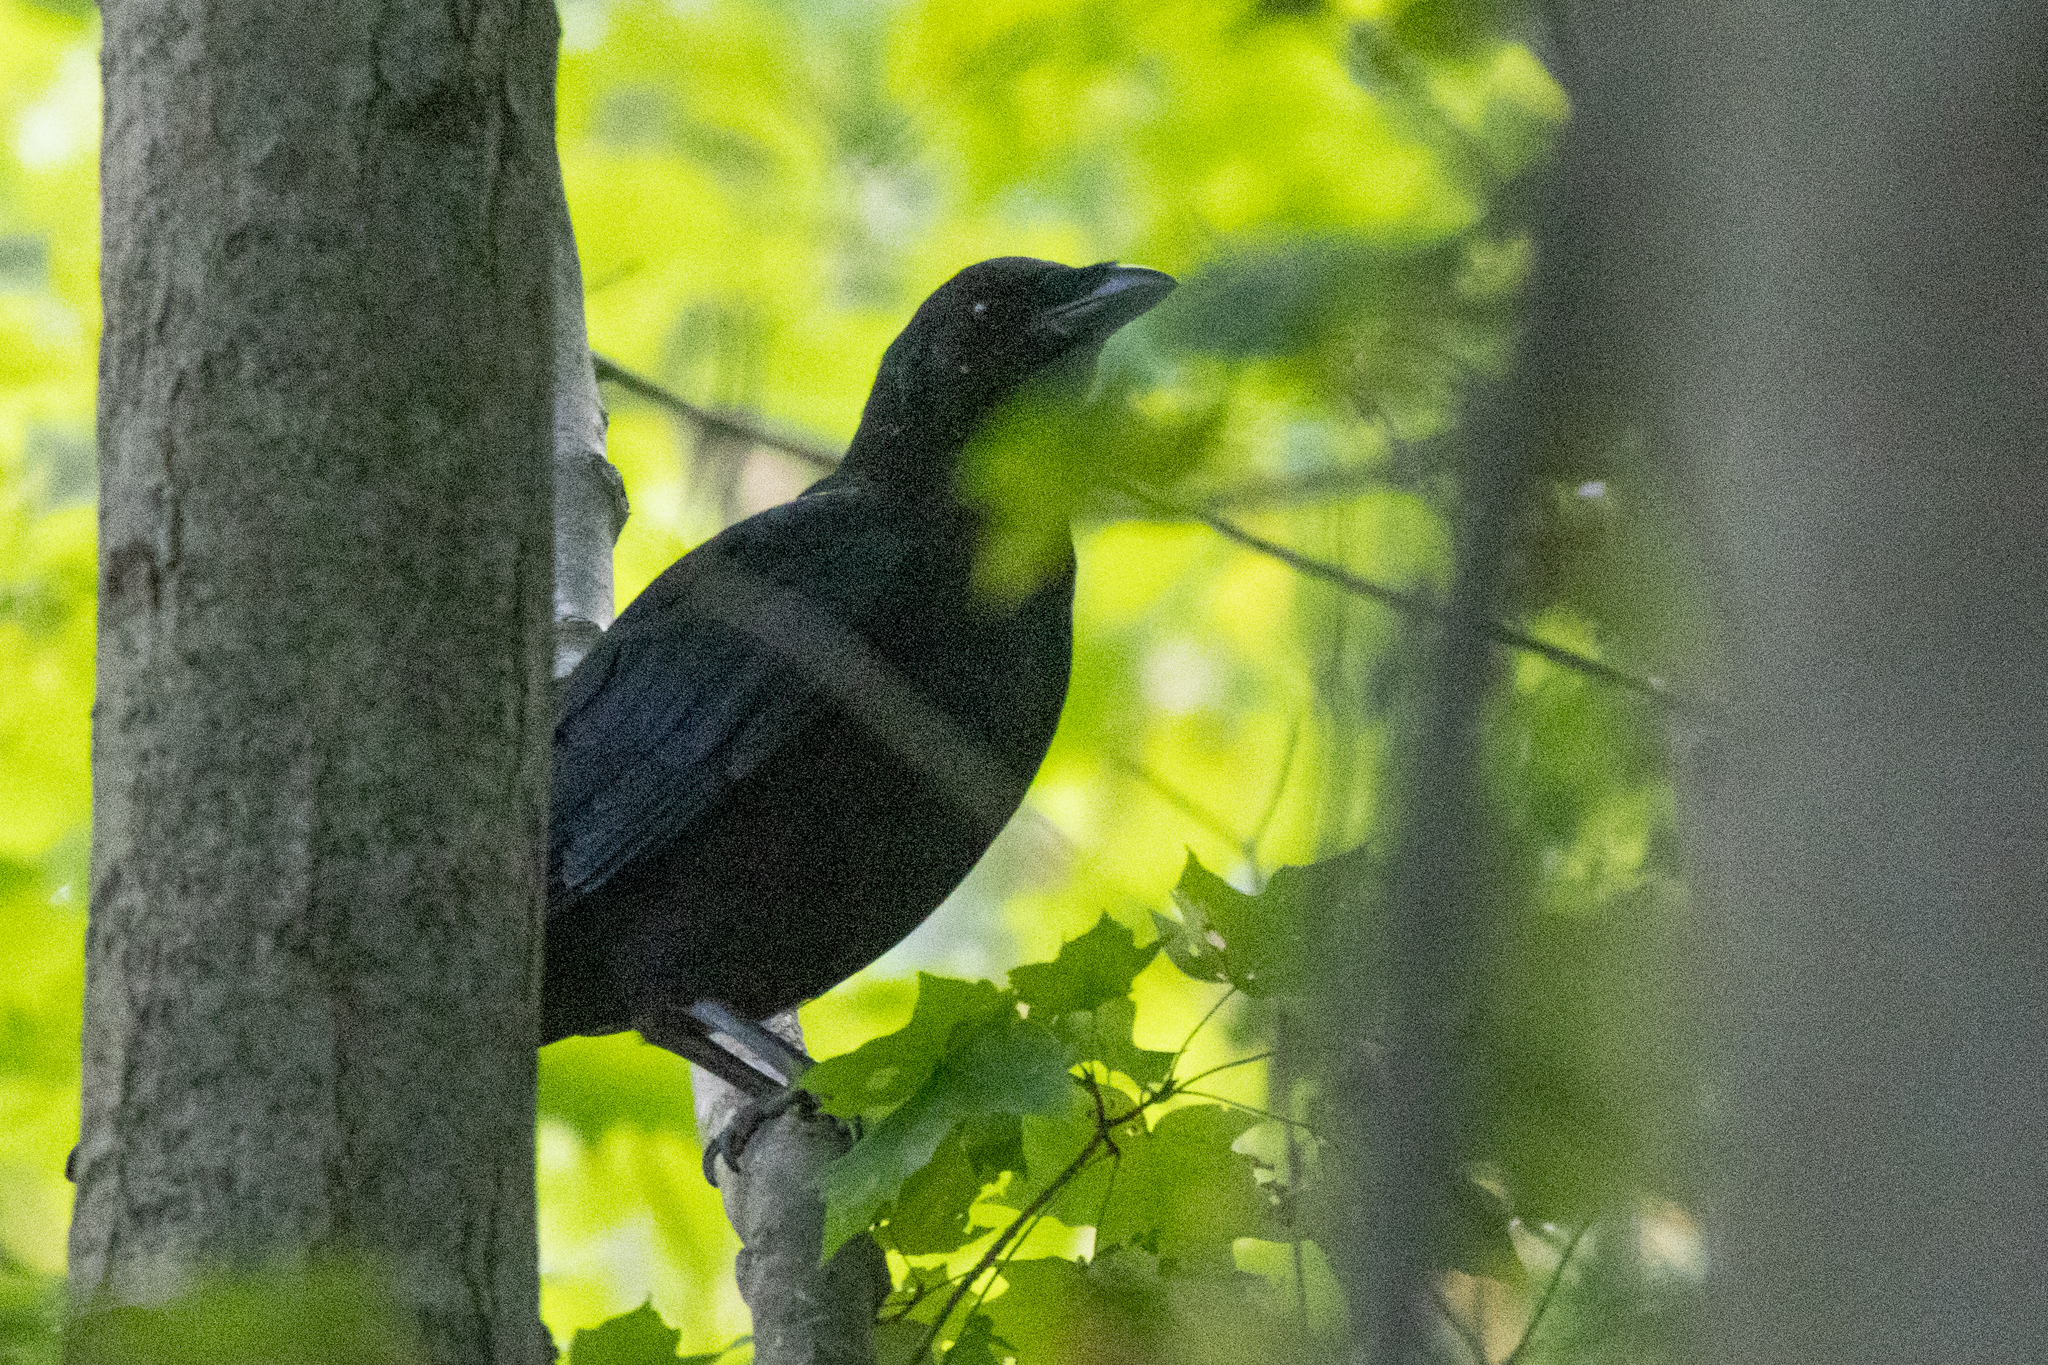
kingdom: Animalia
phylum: Chordata
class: Aves
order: Passeriformes
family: Corvidae
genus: Corvus
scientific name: Corvus brachyrhynchos
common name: American crow
